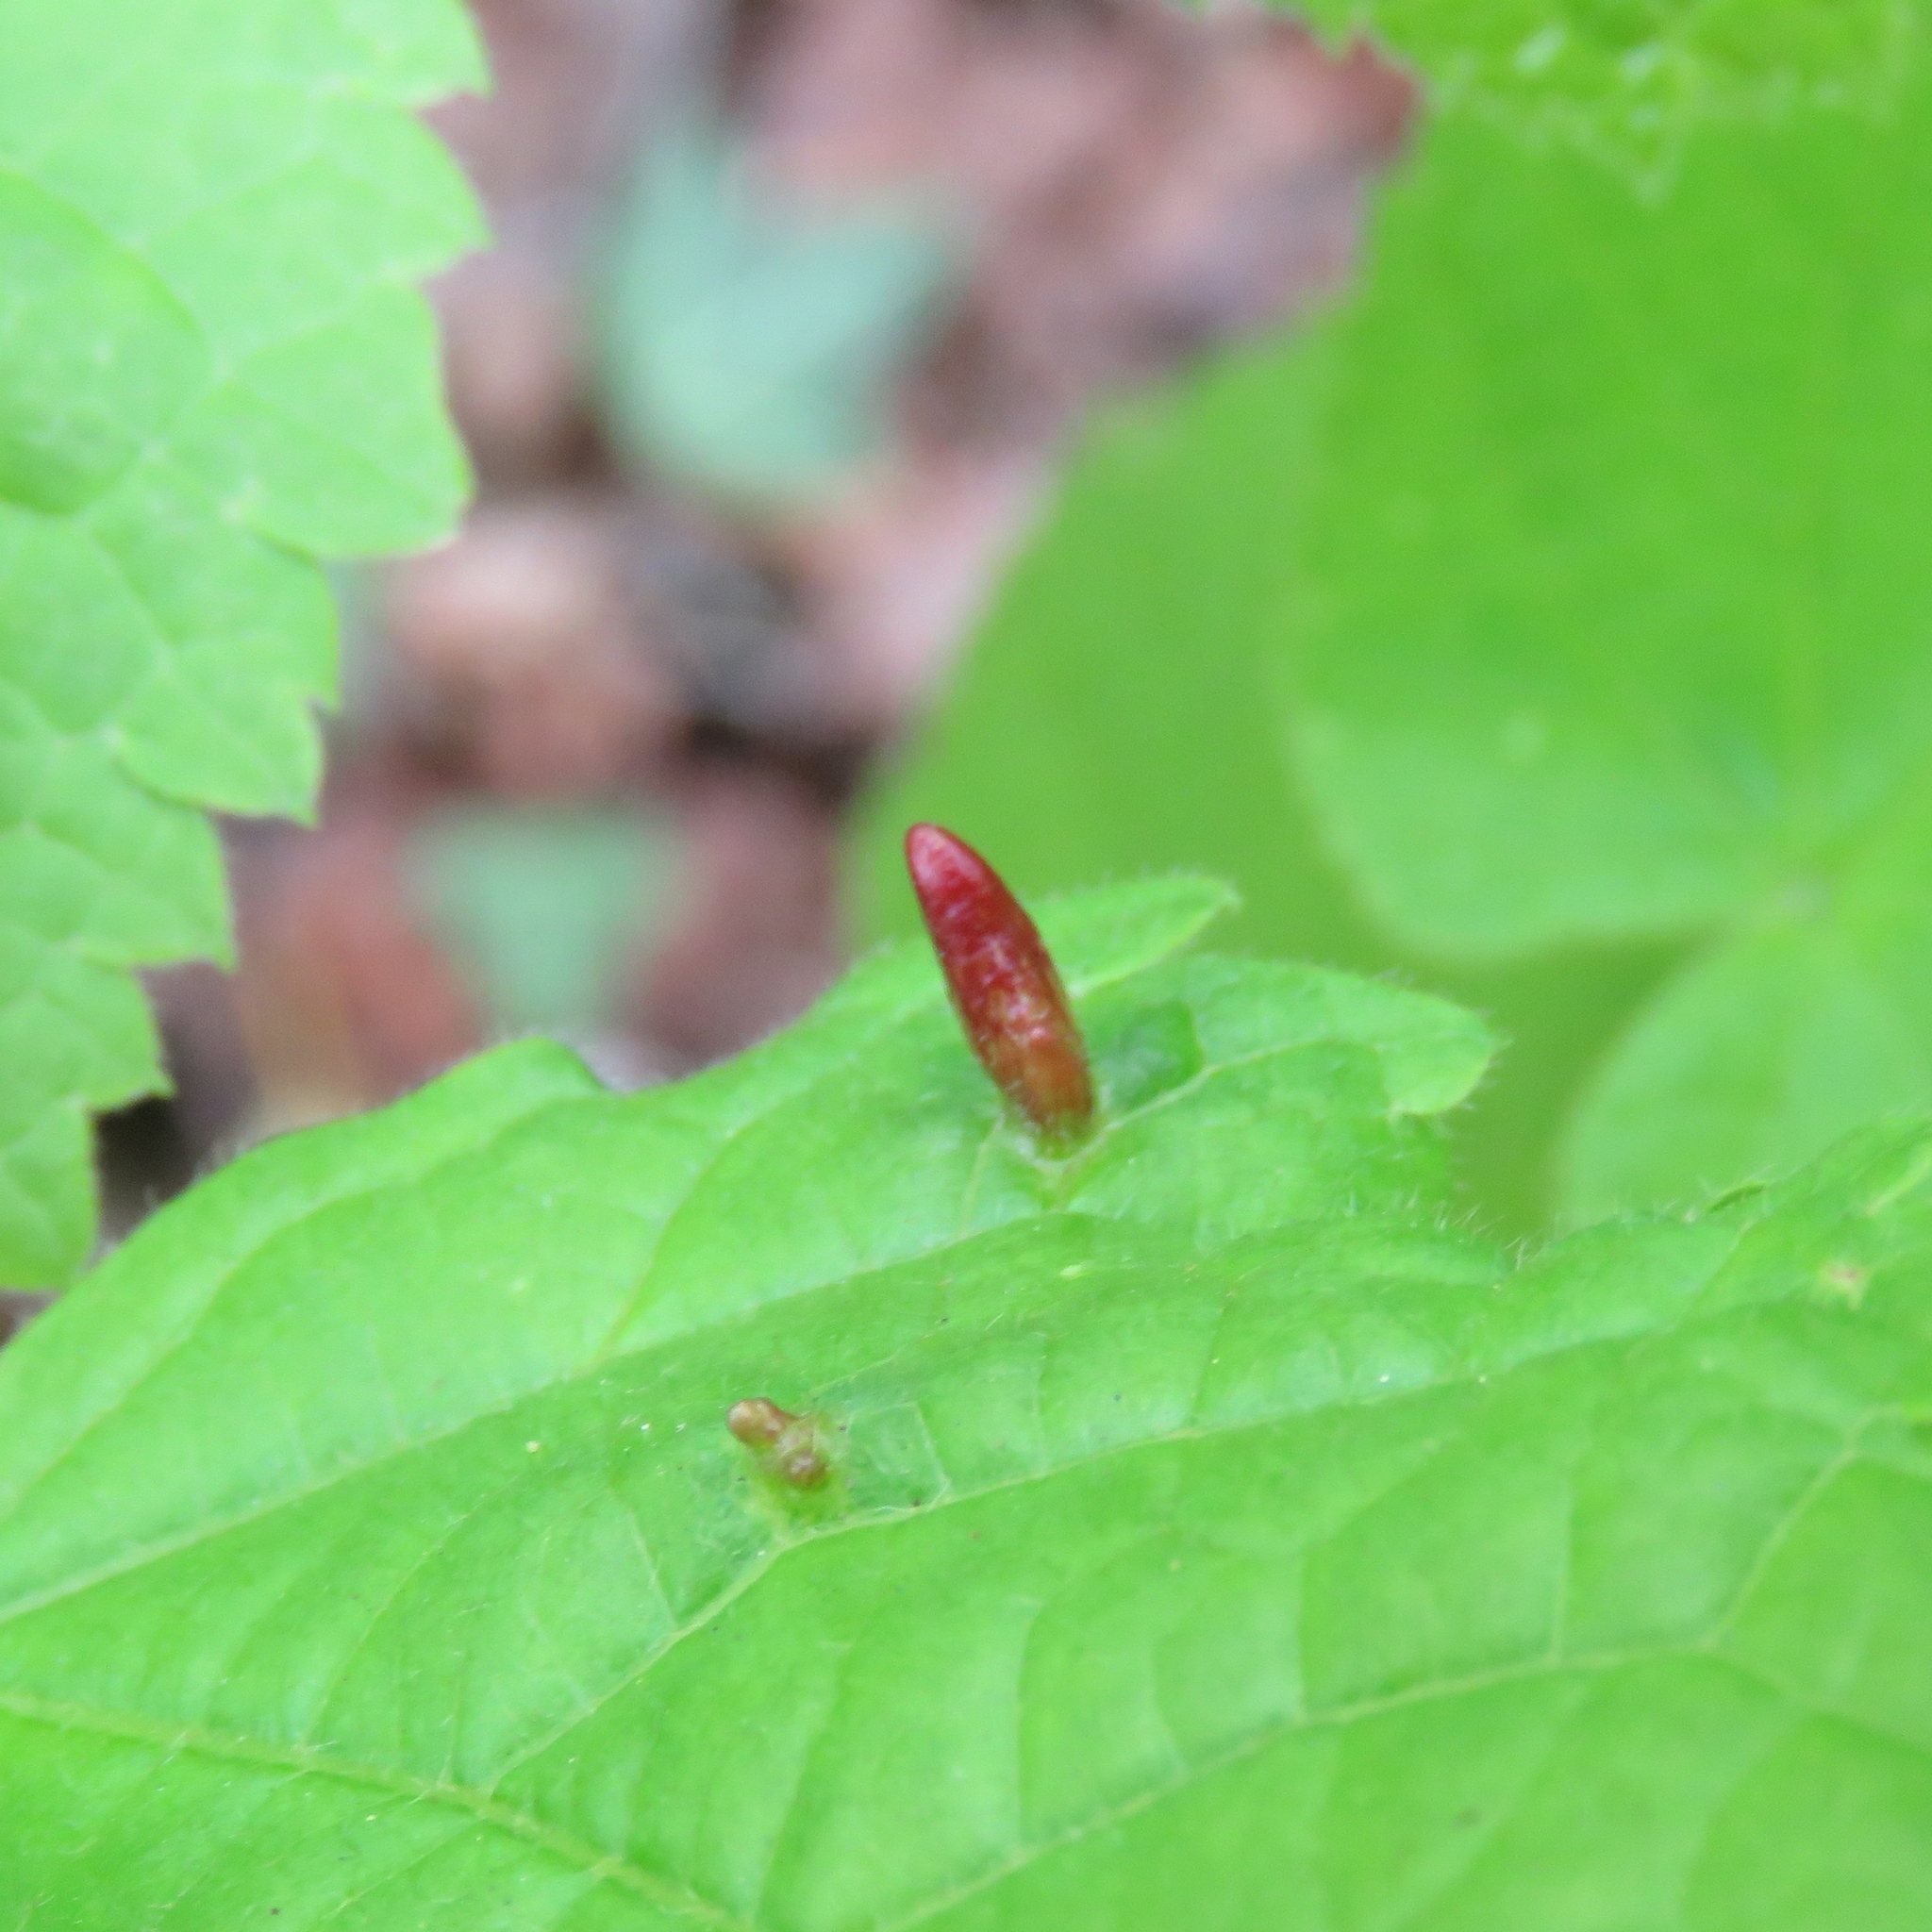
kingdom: Animalia
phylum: Arthropoda
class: Arachnida
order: Trombidiformes
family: Eriophyidae
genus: Eriophyes
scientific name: Eriophyes tiliae
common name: Red nail gall mite
